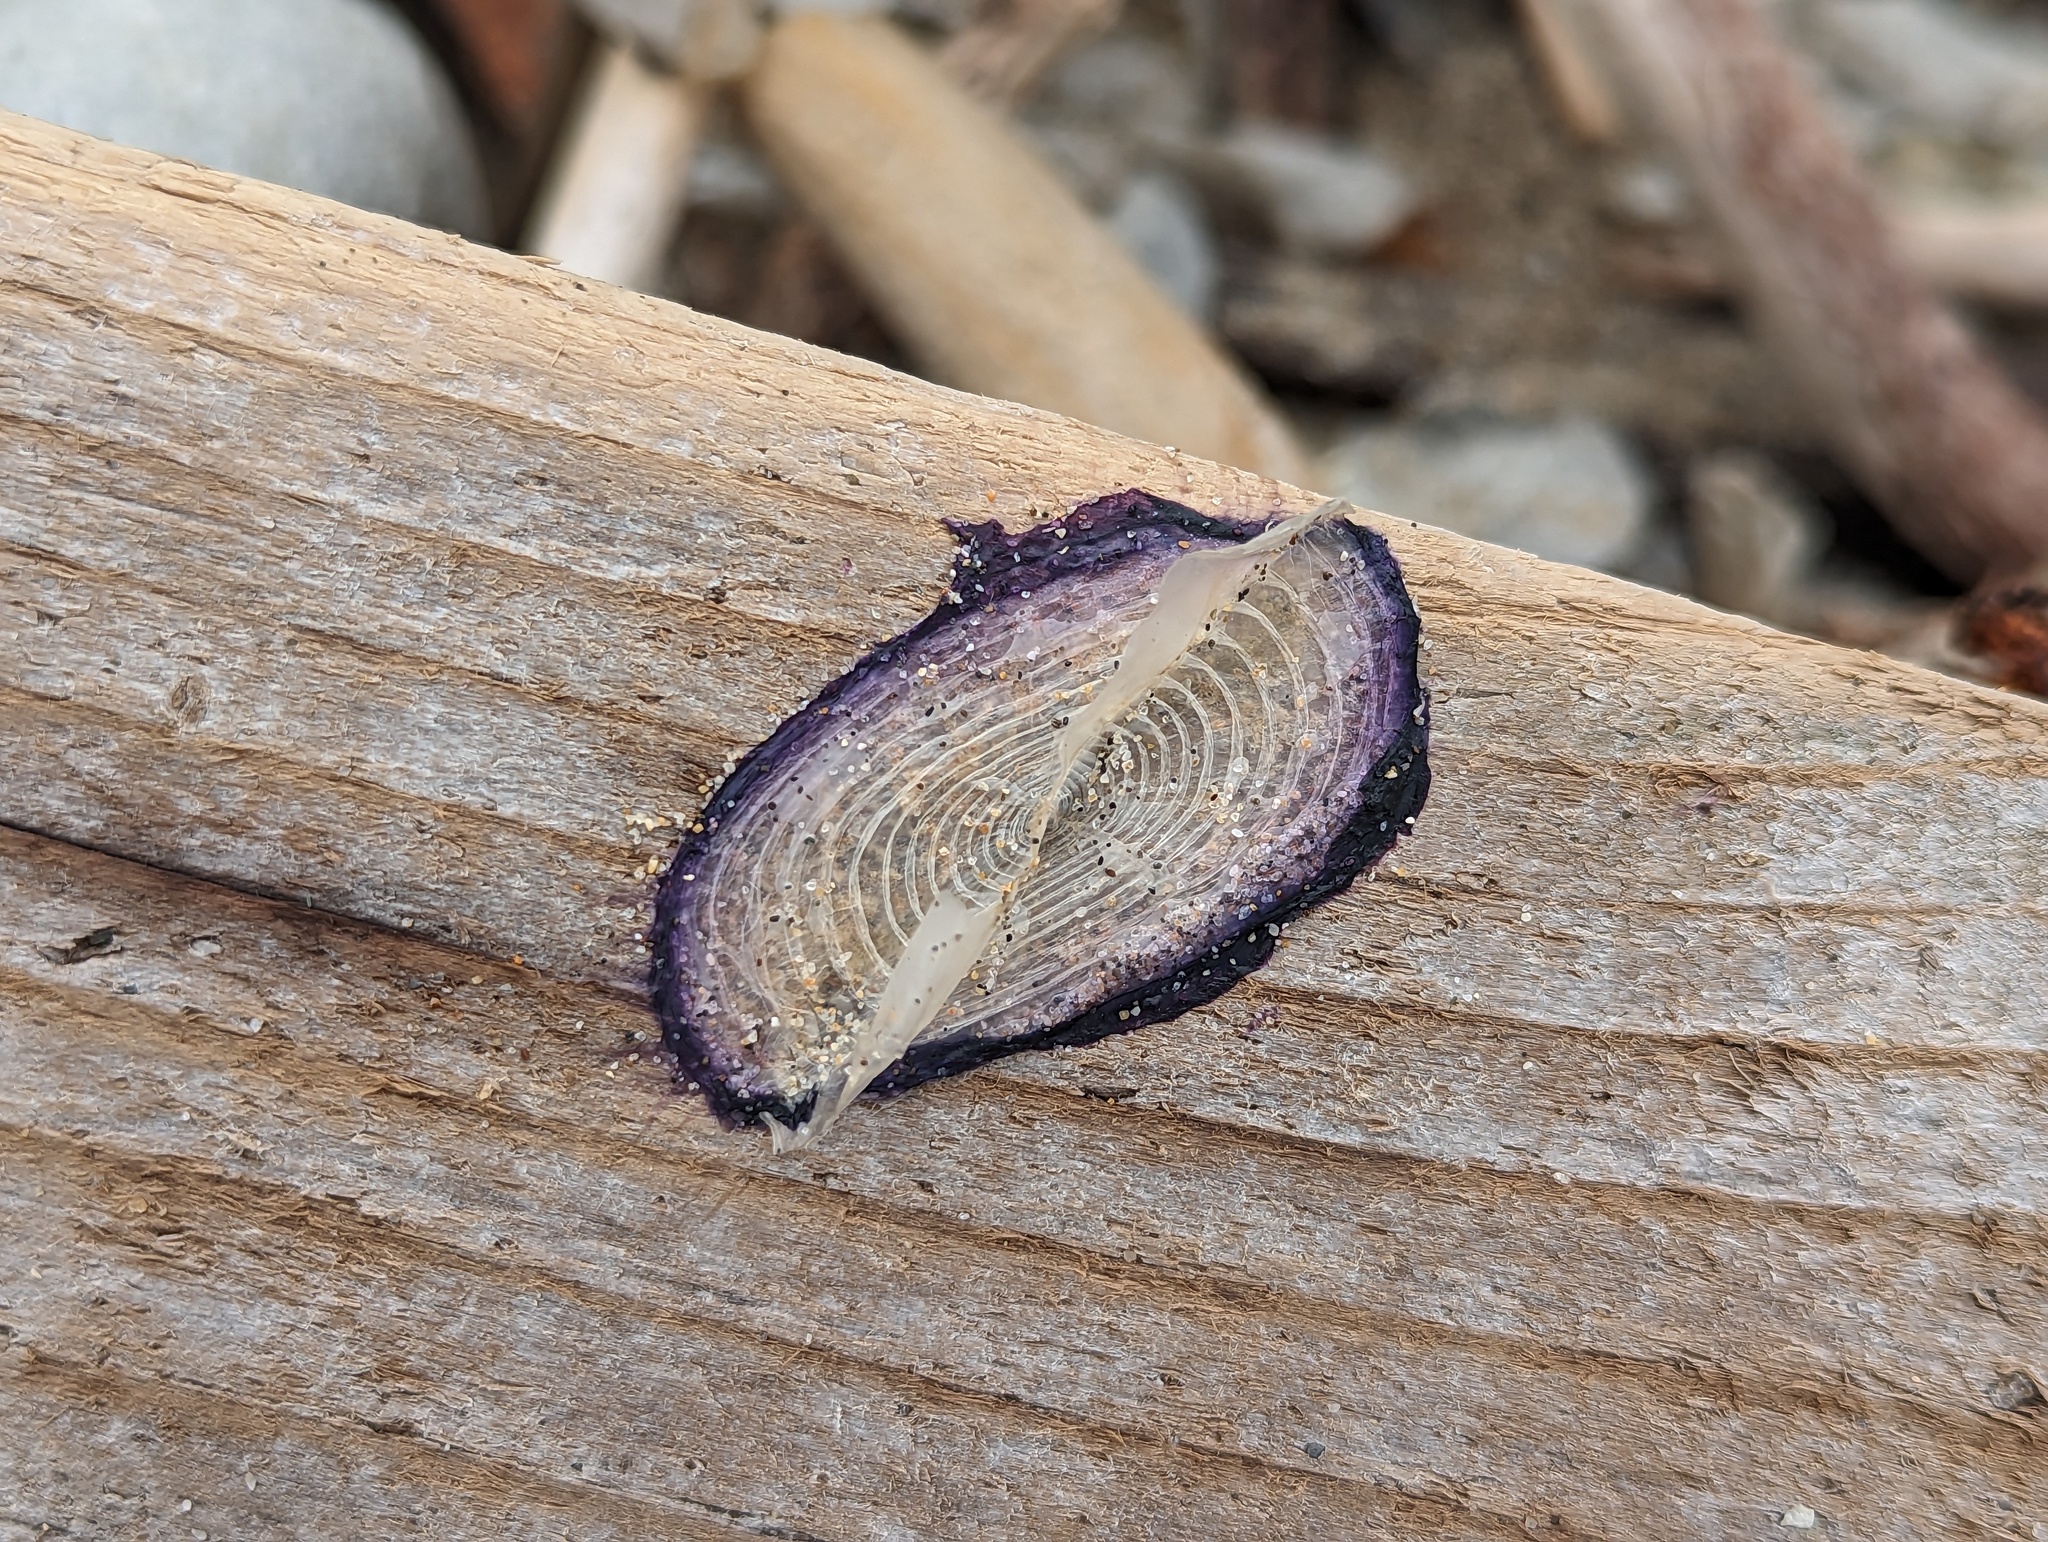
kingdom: Animalia
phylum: Cnidaria
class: Hydrozoa
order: Anthoathecata
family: Porpitidae
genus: Velella
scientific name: Velella velella
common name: By-the-wind-sailor
